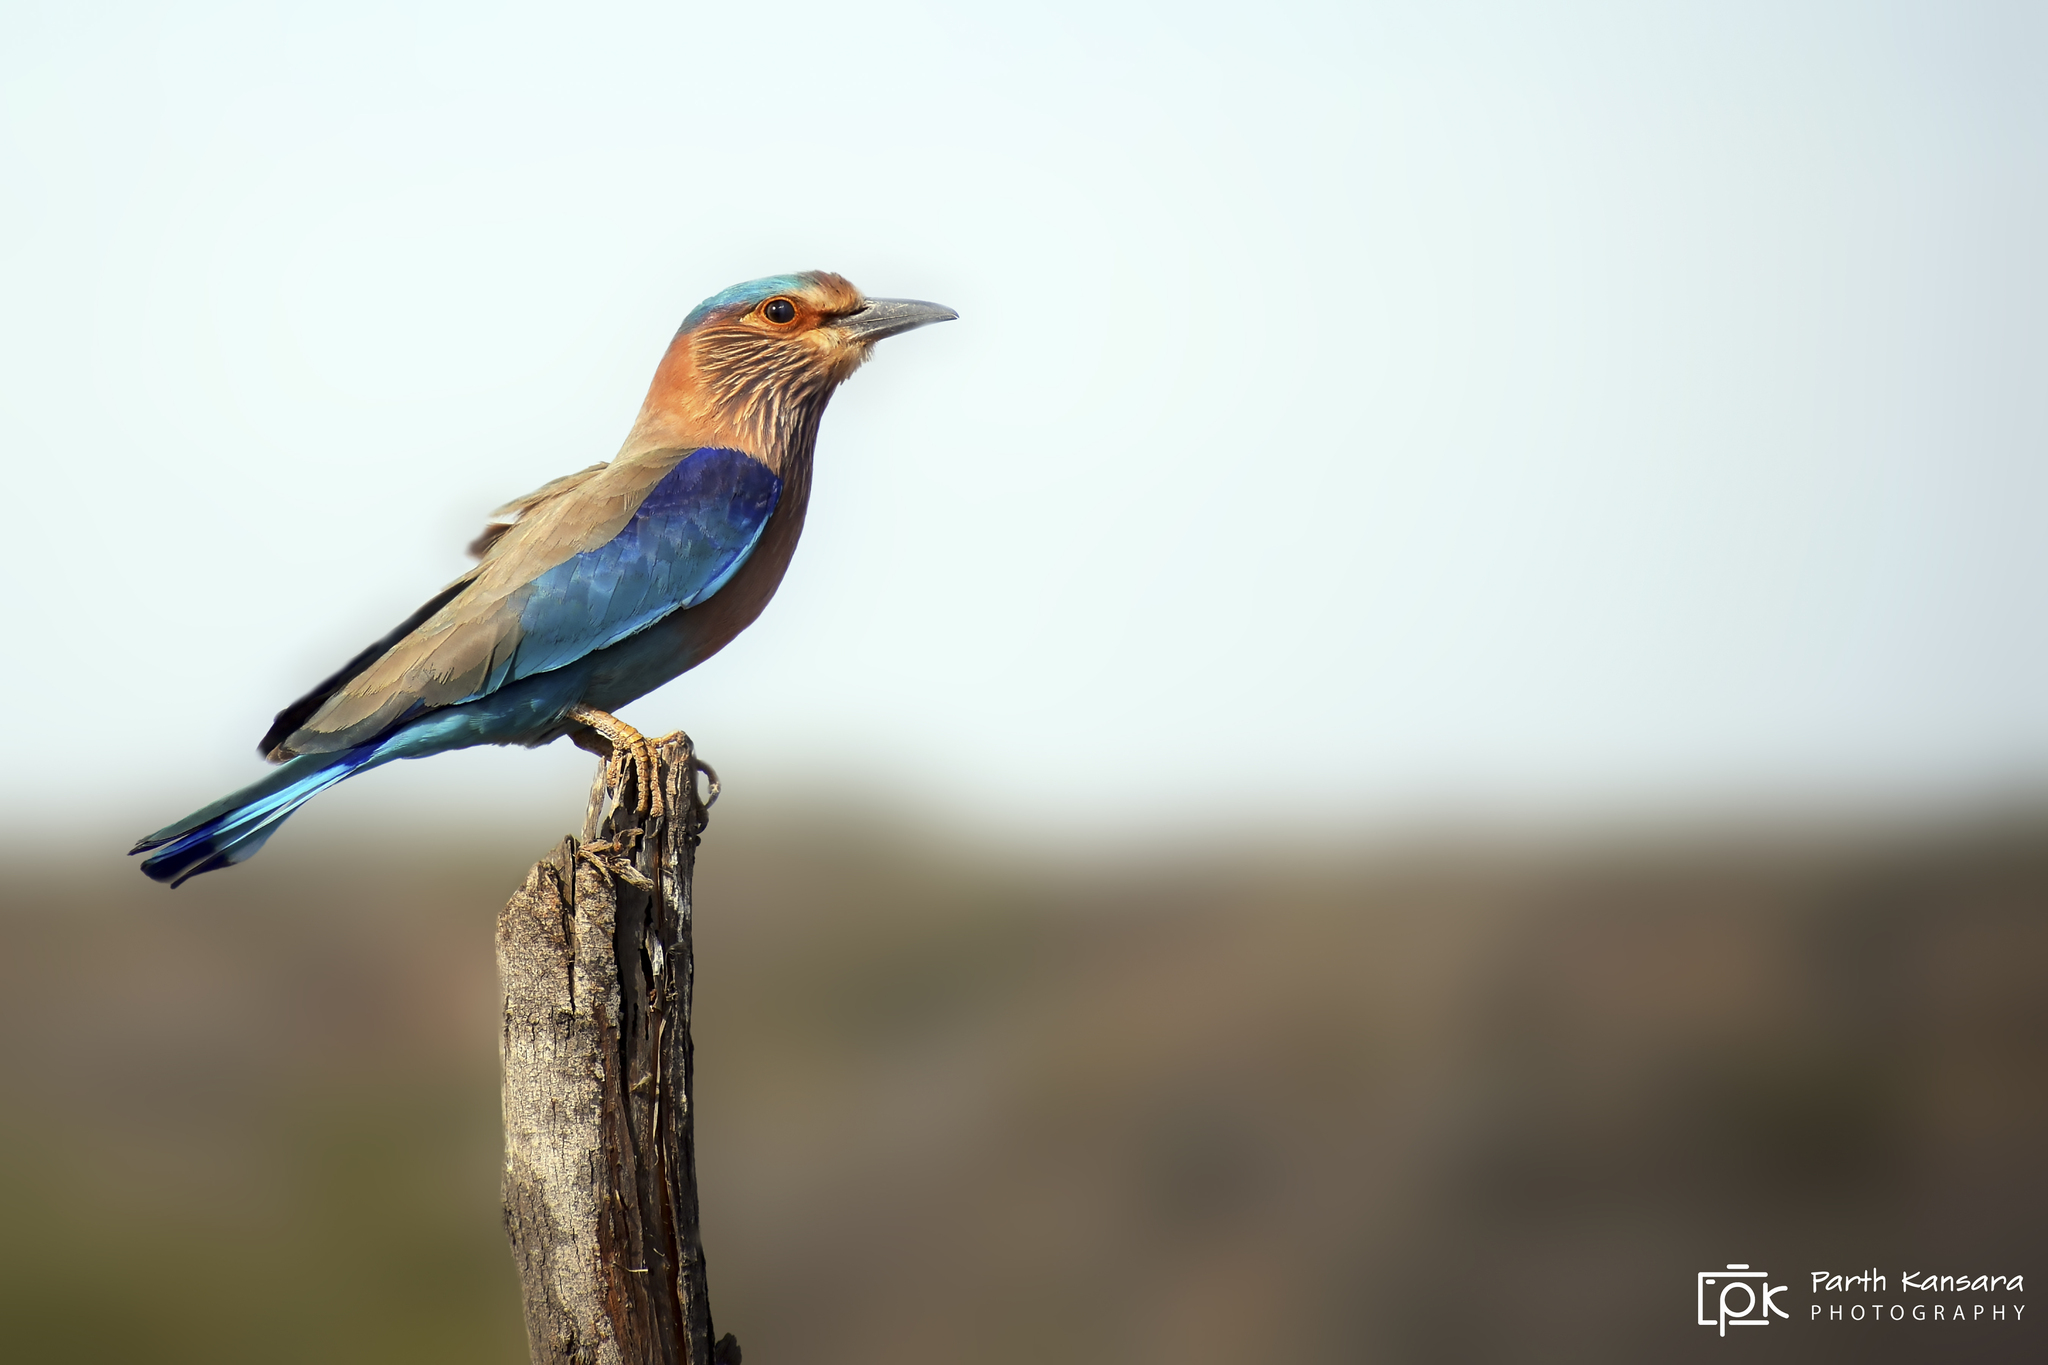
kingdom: Animalia
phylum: Chordata
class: Aves
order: Coraciiformes
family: Coraciidae
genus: Coracias
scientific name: Coracias benghalensis
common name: Indian roller
